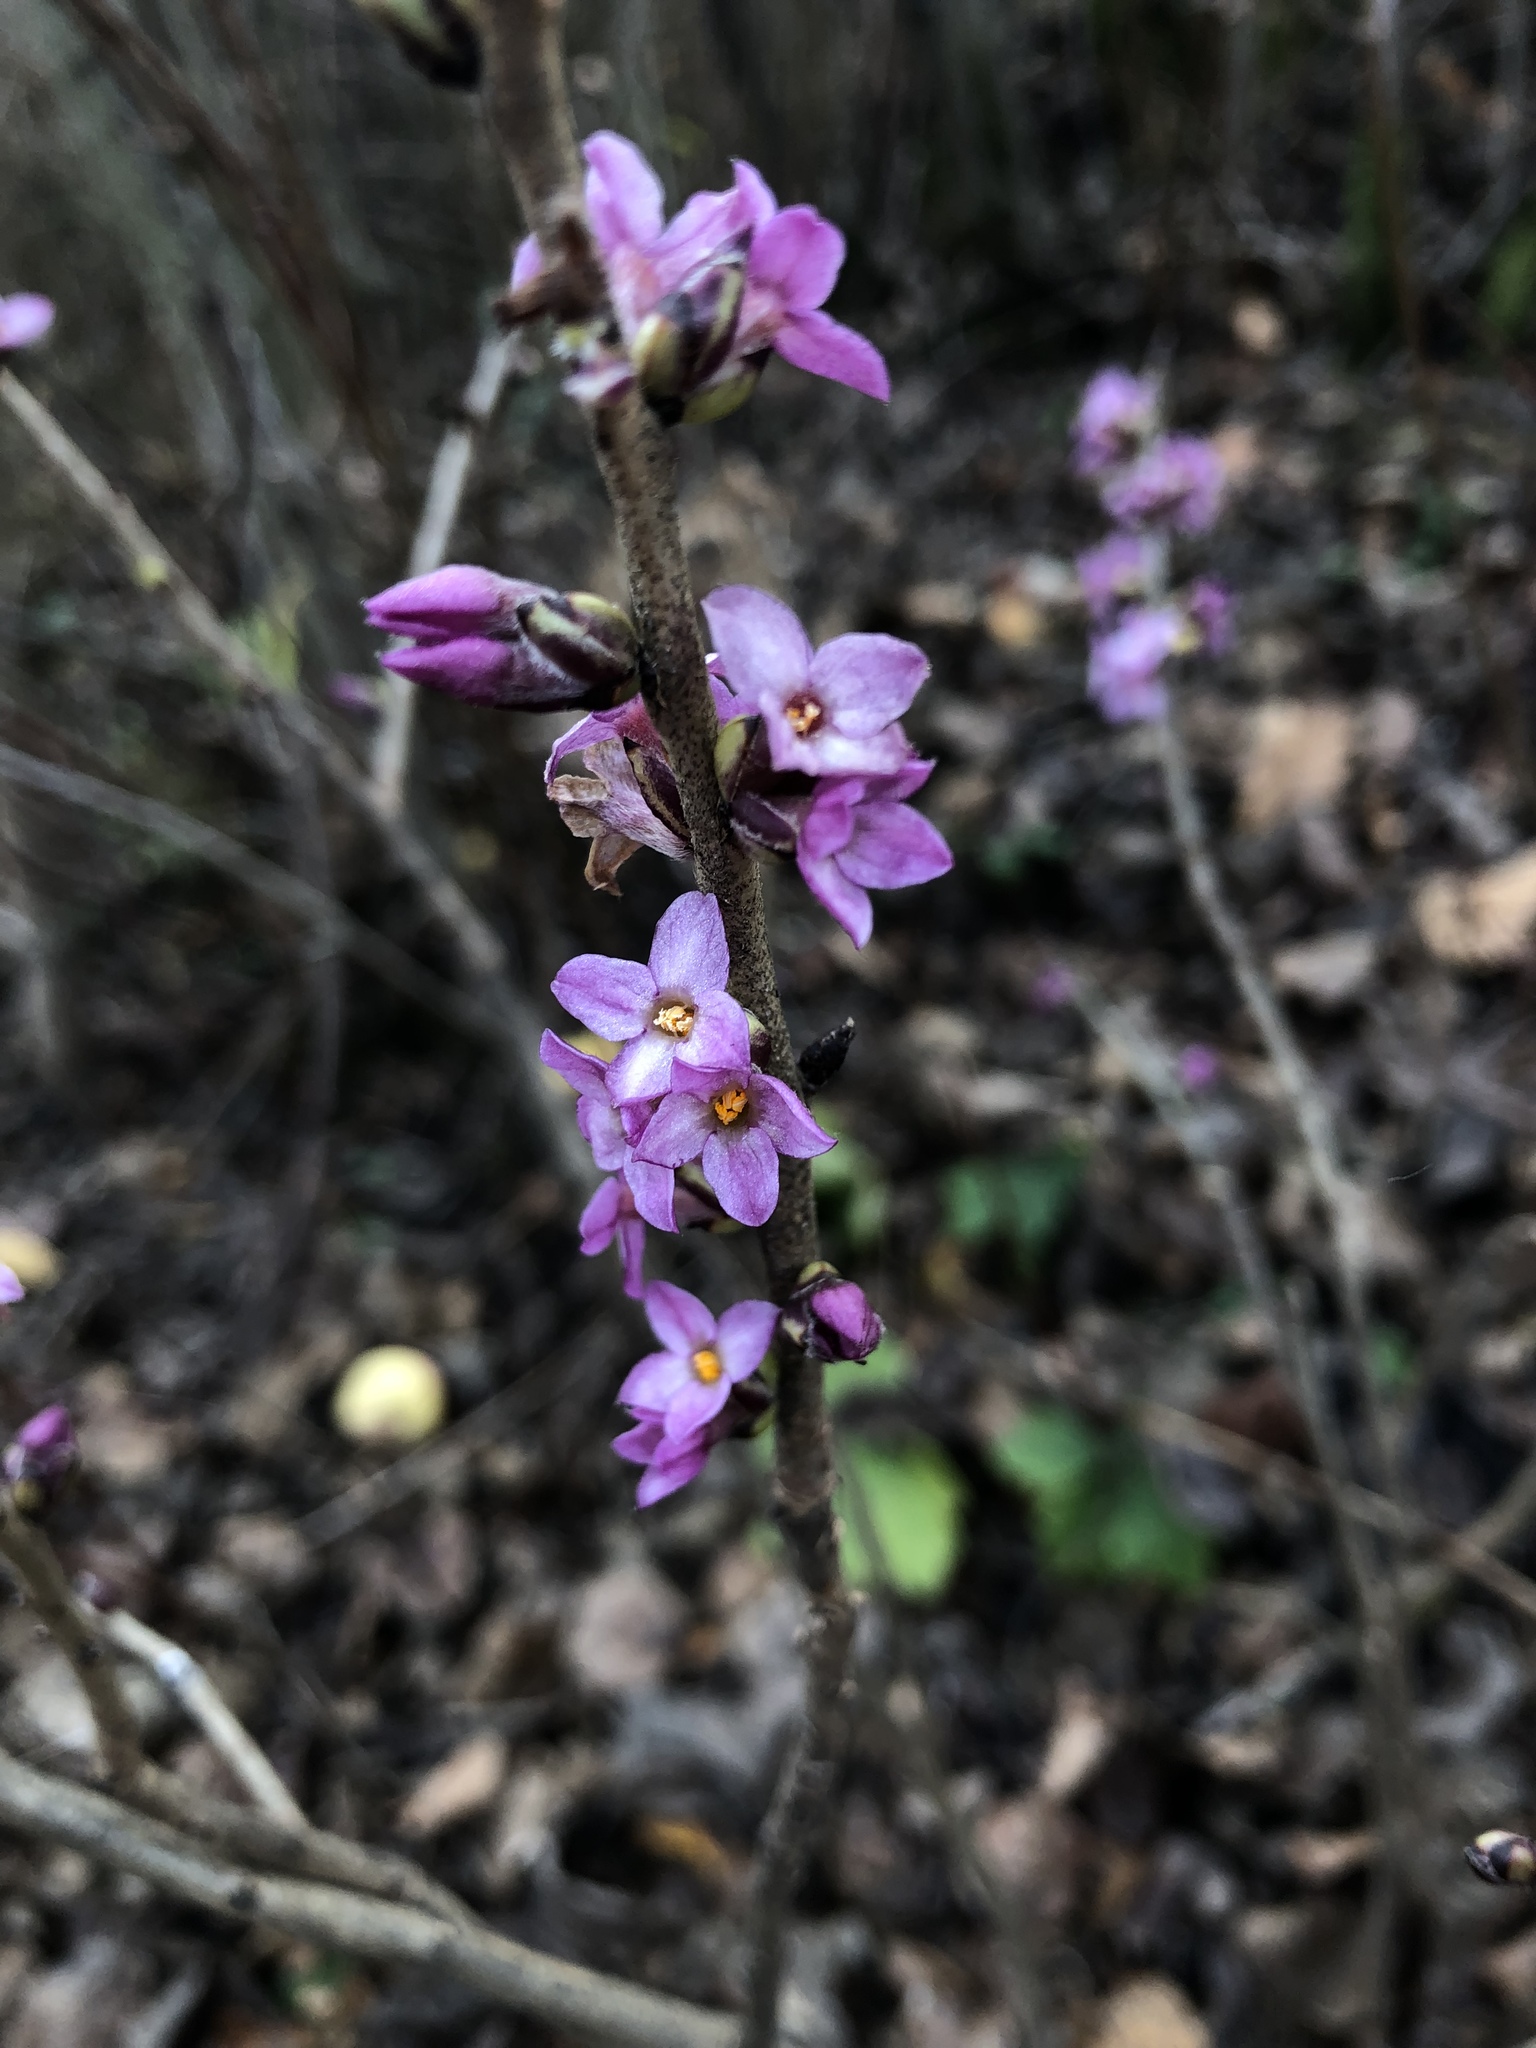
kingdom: Plantae
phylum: Tracheophyta
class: Magnoliopsida
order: Malvales
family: Thymelaeaceae
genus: Daphne
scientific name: Daphne mezereum
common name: Mezereon
